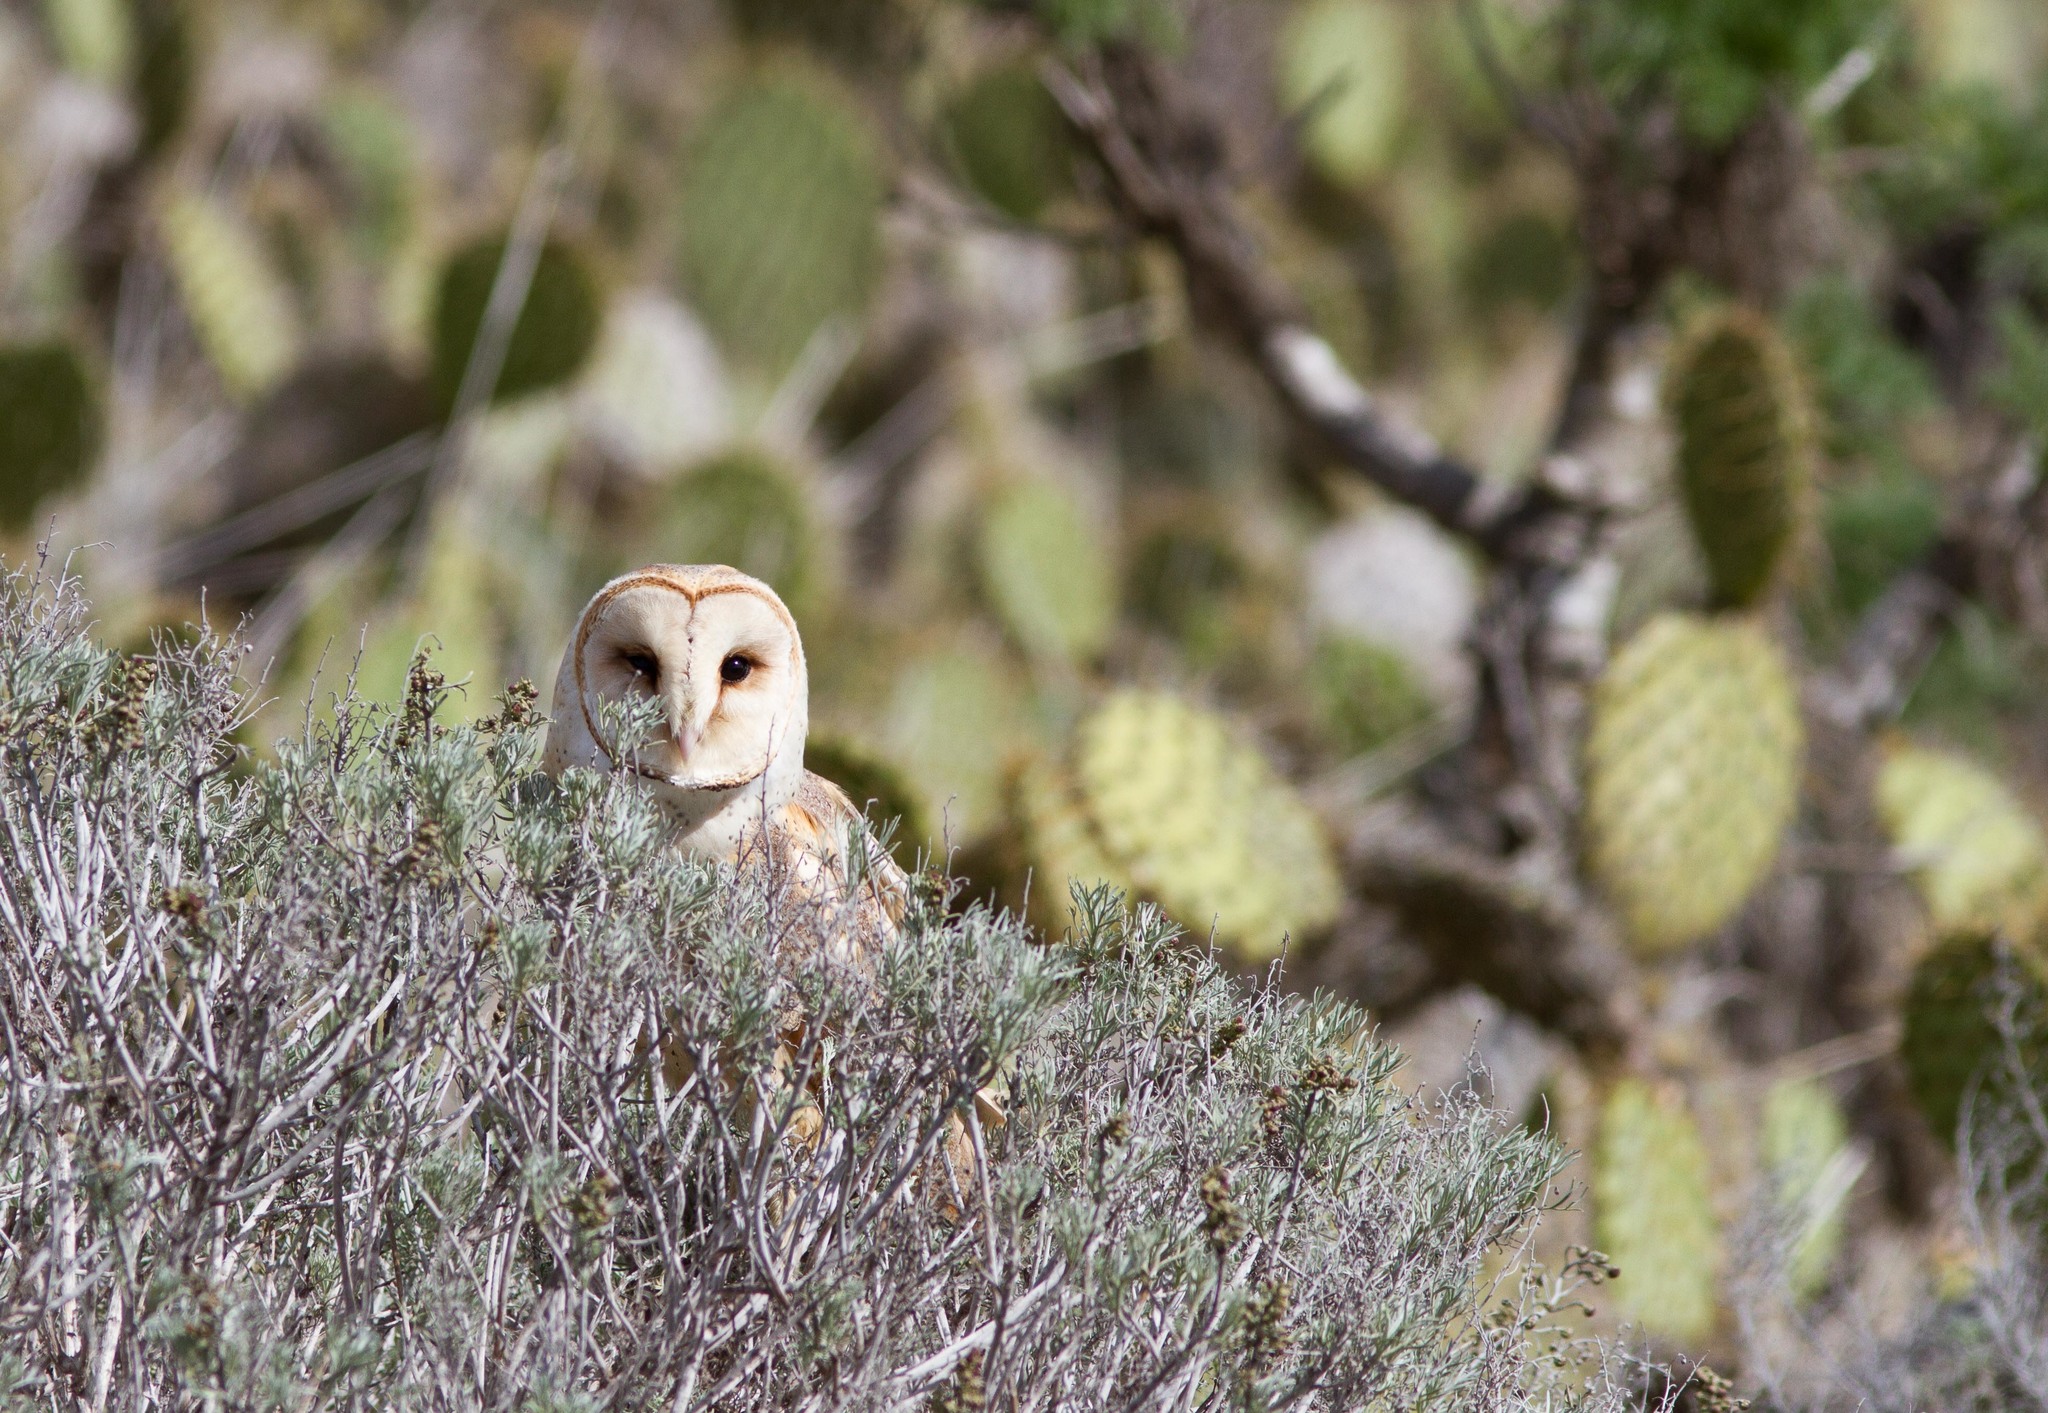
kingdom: Animalia
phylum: Chordata
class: Aves
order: Strigiformes
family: Tytonidae
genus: Tyto
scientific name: Tyto alba
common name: Barn owl
